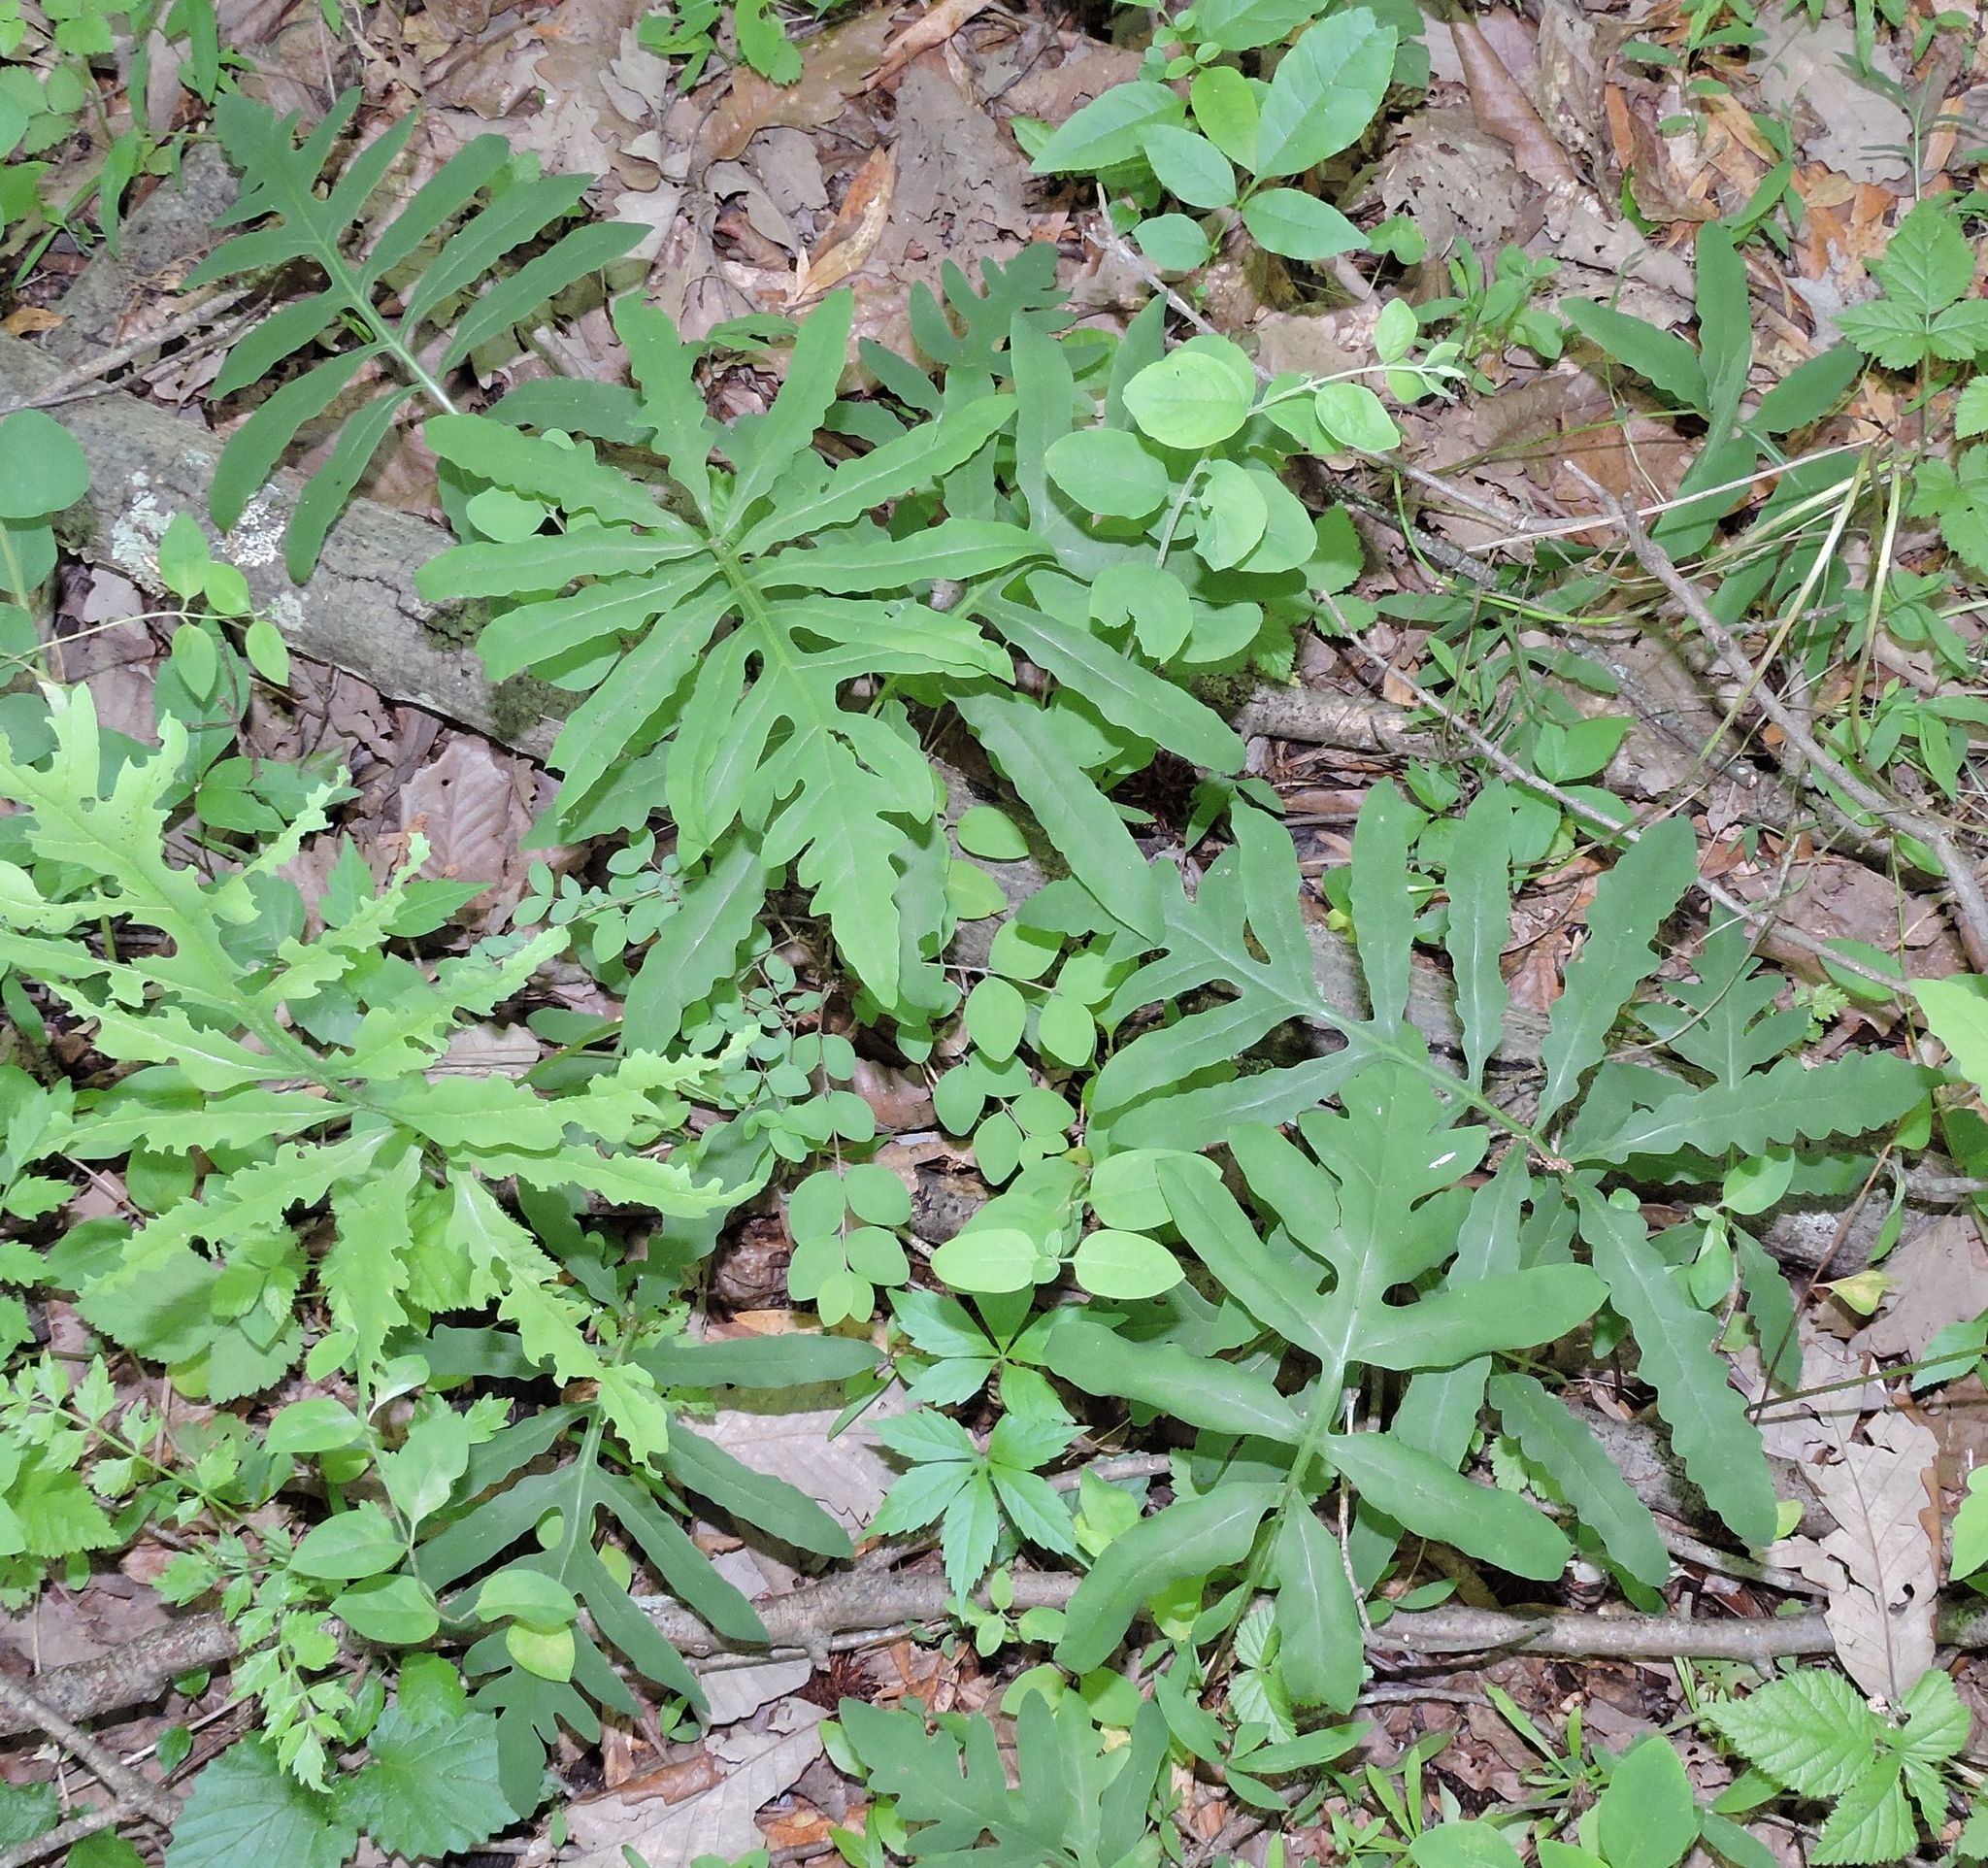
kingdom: Plantae
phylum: Tracheophyta
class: Polypodiopsida
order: Polypodiales
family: Onocleaceae
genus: Onoclea
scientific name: Onoclea sensibilis
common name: Sensitive fern
